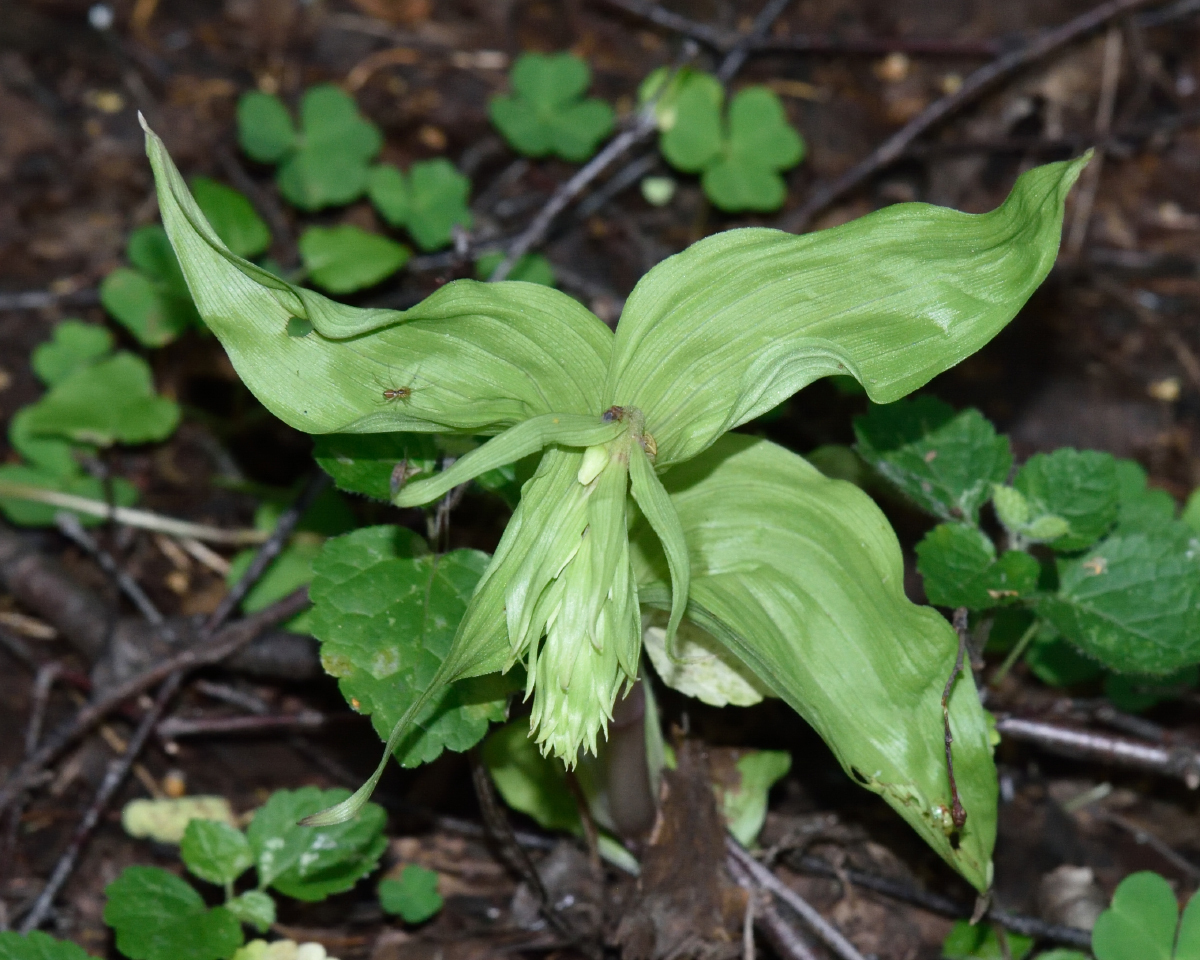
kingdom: Plantae
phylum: Tracheophyta
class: Liliopsida
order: Asparagales
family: Orchidaceae
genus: Epipactis
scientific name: Epipactis helleborine
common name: Broad-leaved helleborine
